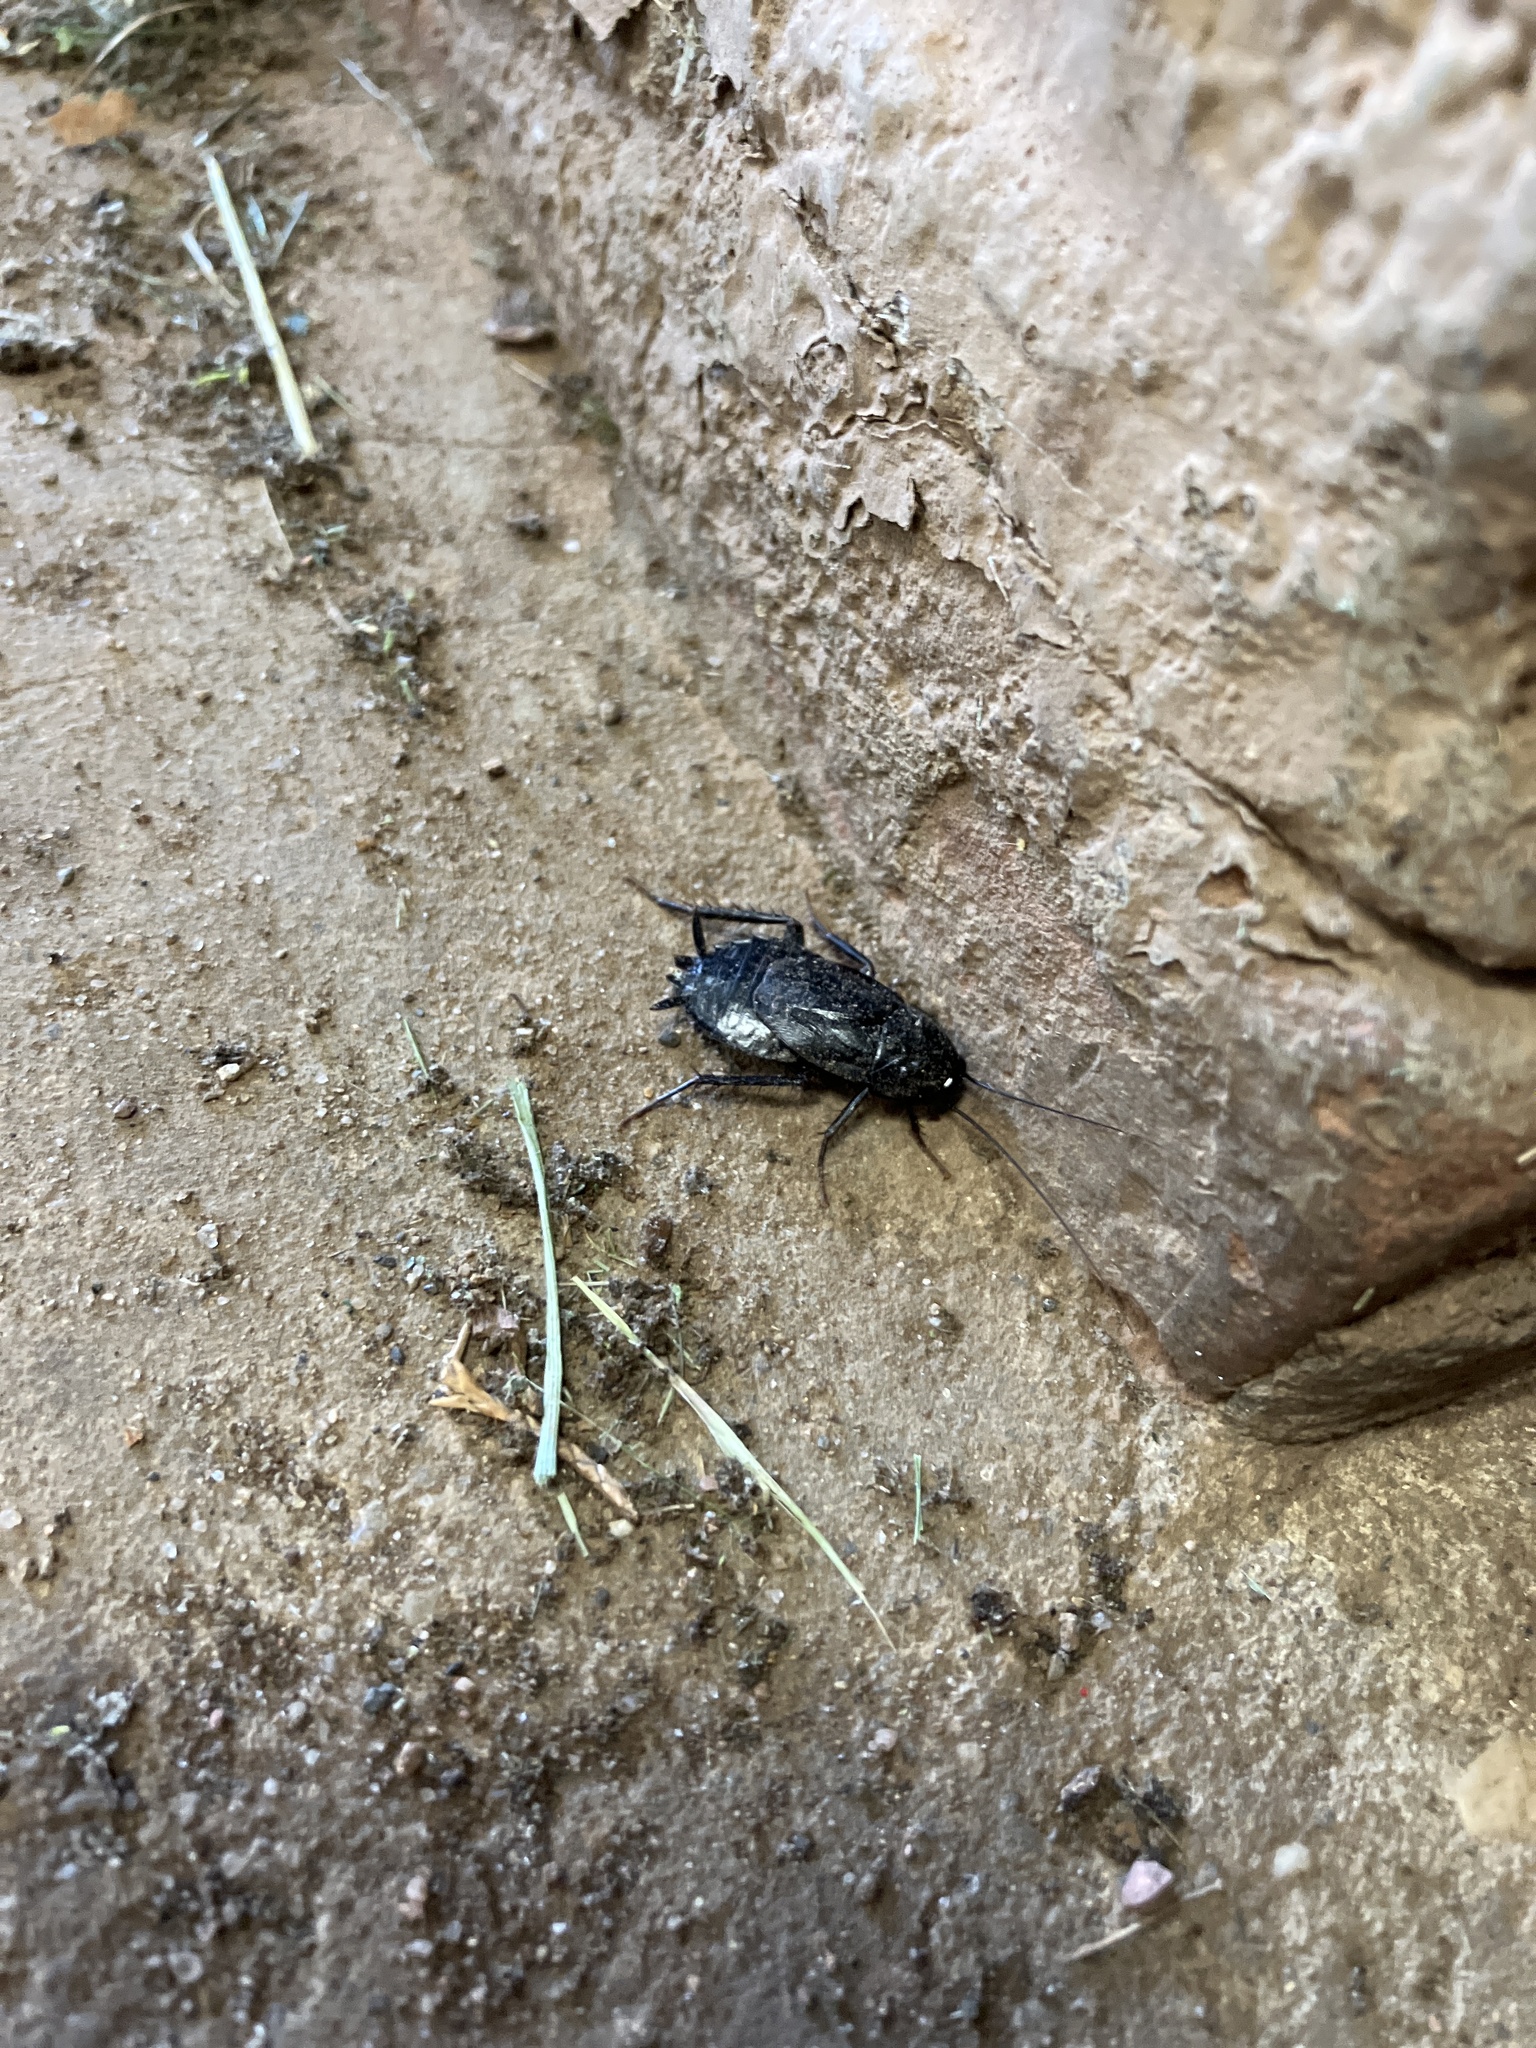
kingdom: Animalia
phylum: Arthropoda
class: Insecta
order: Blattodea
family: Blattidae
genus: Periplaneta
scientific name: Periplaneta japonica
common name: Japanese cockroach
